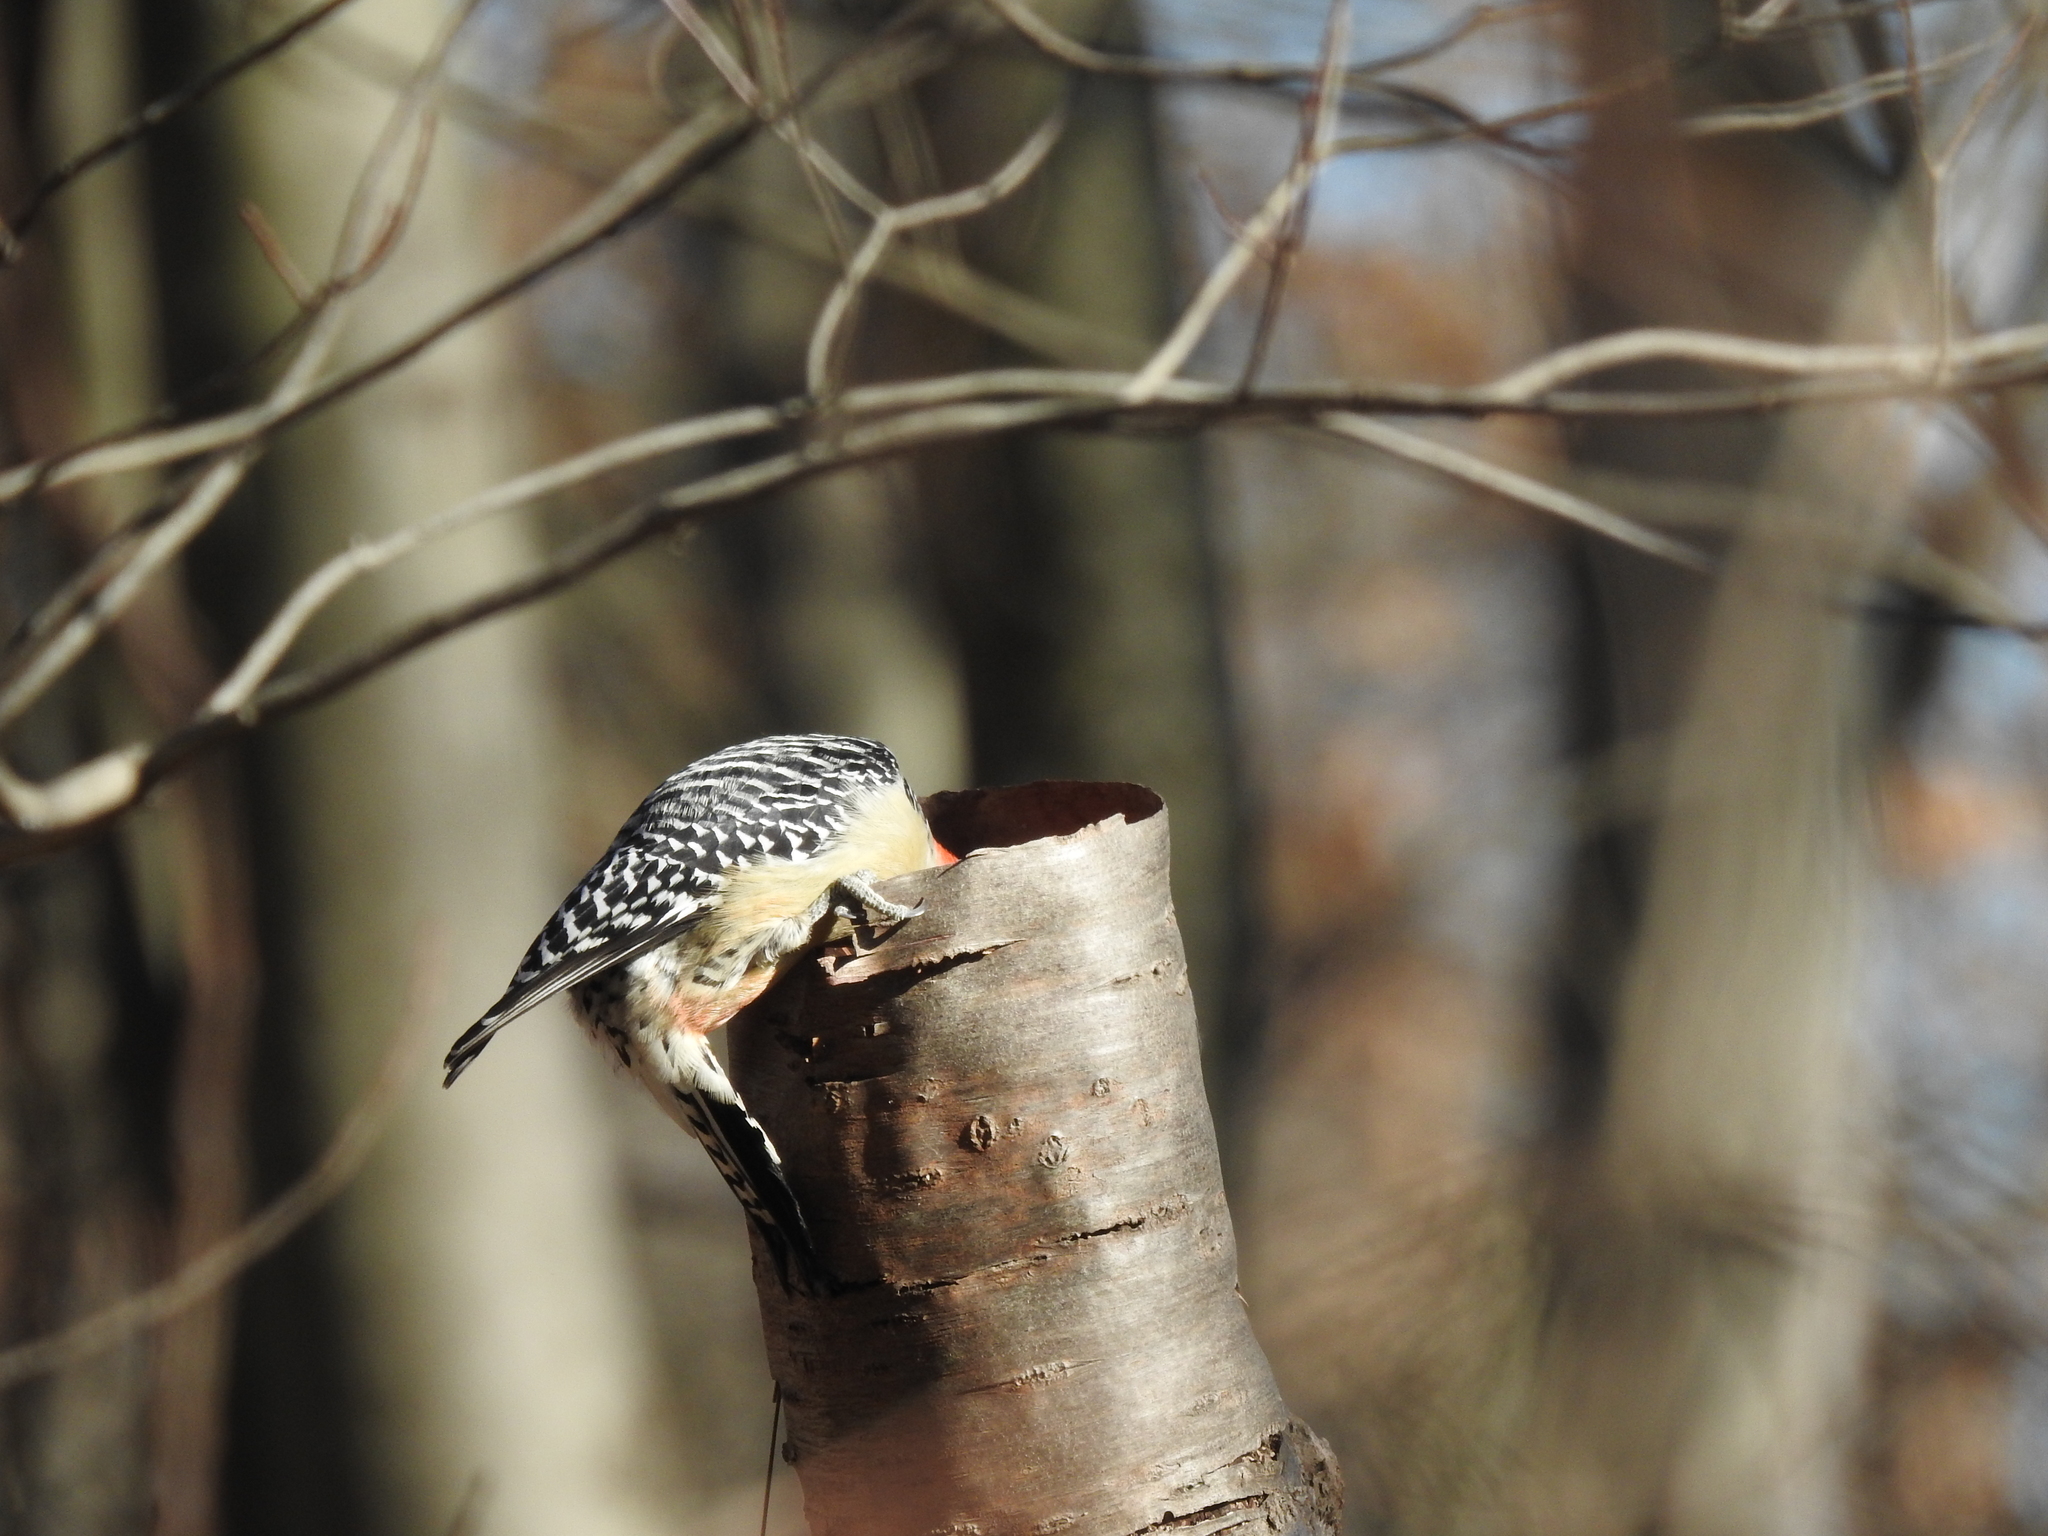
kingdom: Animalia
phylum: Chordata
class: Aves
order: Piciformes
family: Picidae
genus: Melanerpes
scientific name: Melanerpes carolinus
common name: Red-bellied woodpecker
